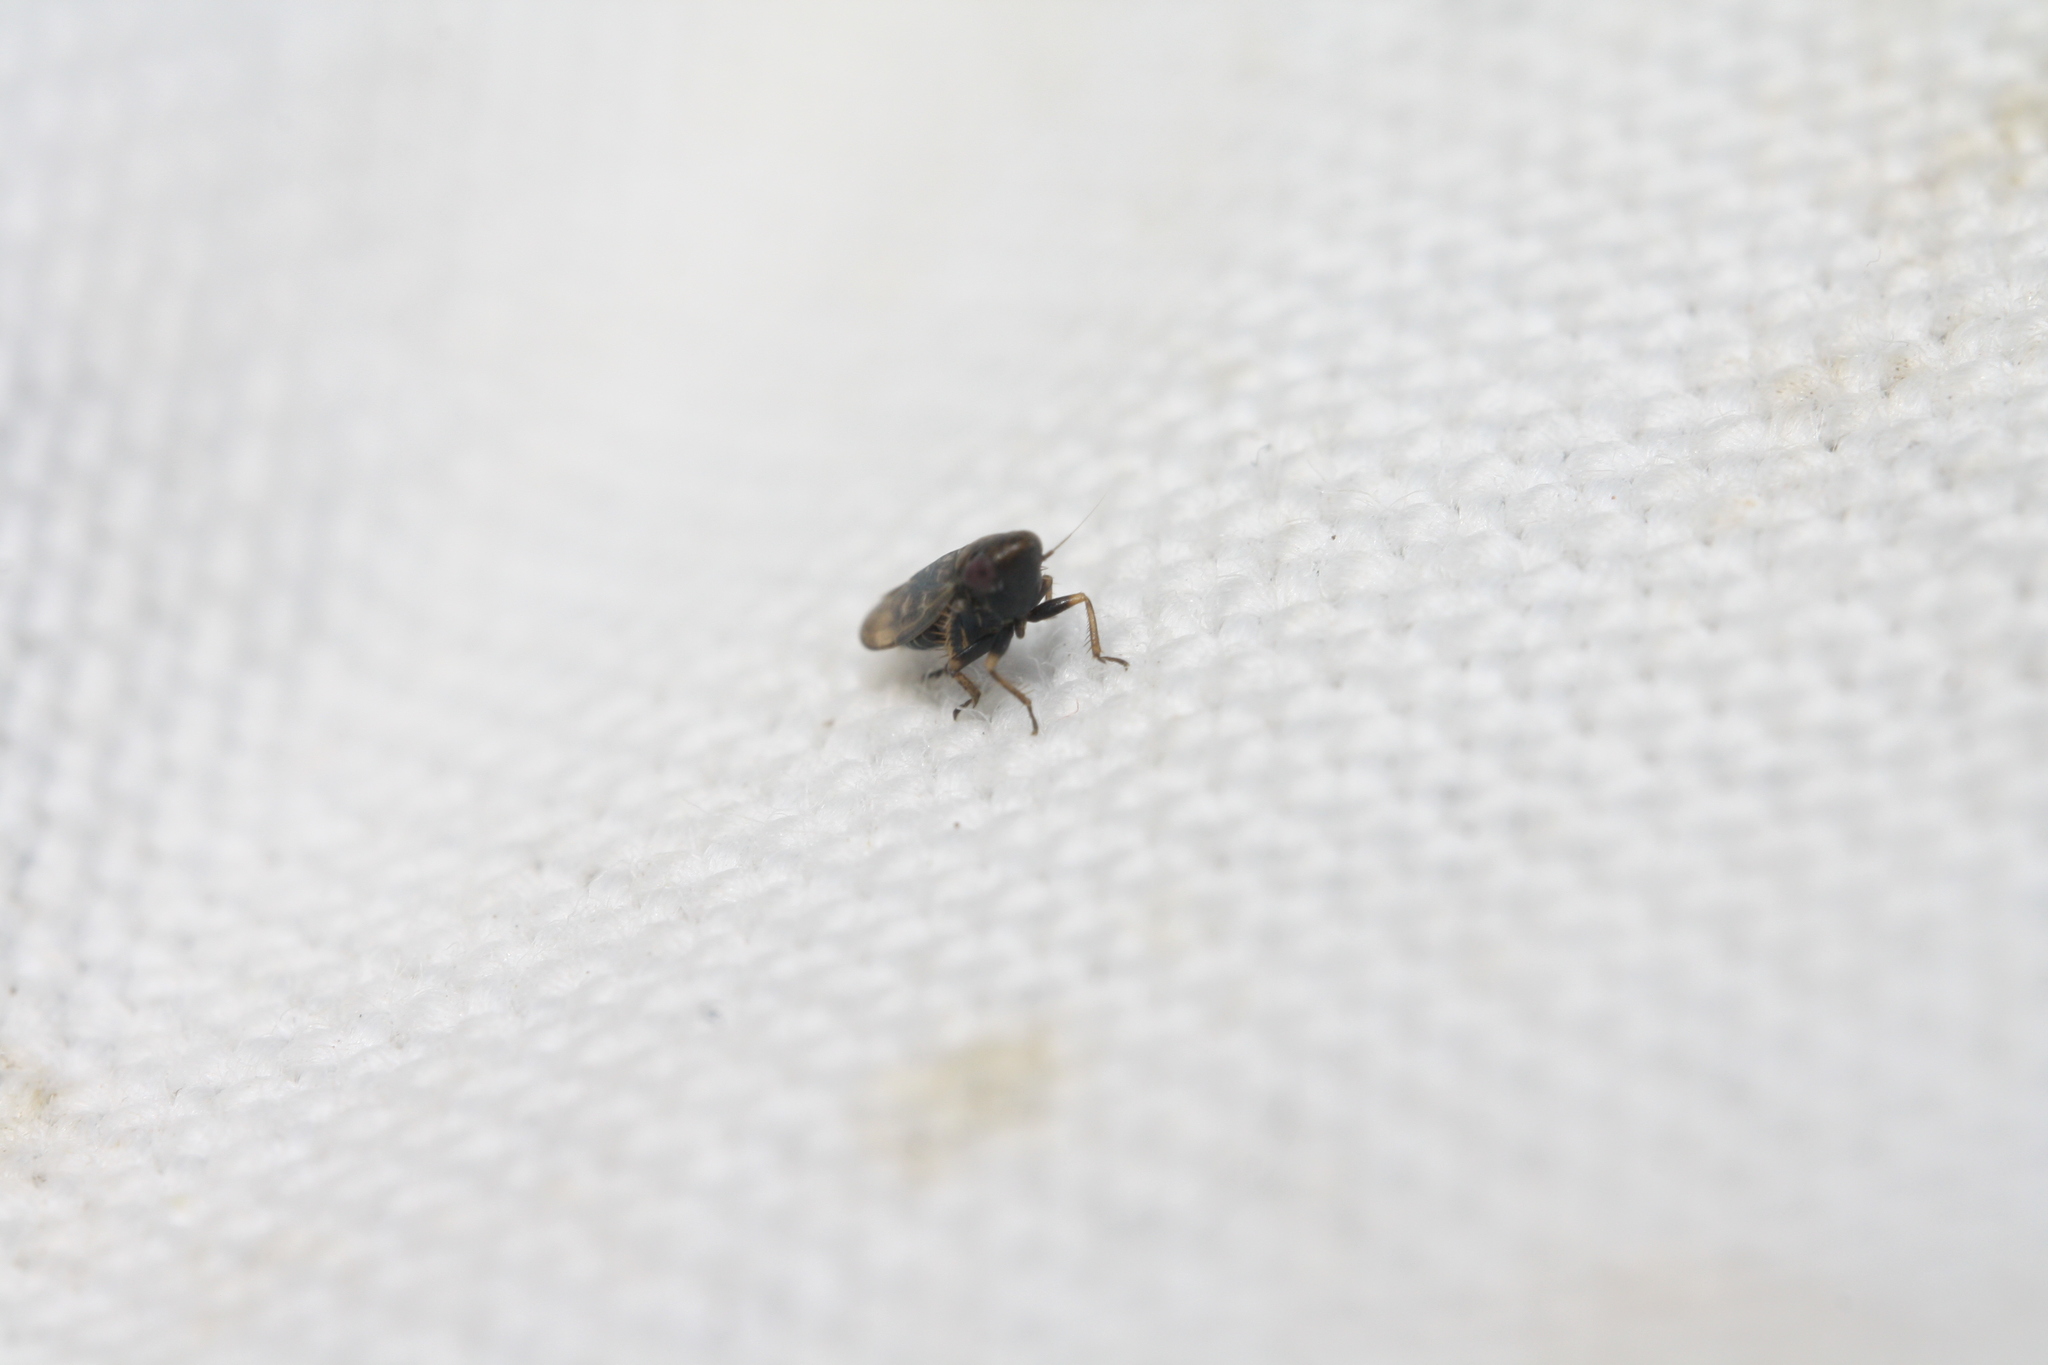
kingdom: Animalia
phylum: Arthropoda
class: Insecta
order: Hemiptera
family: Cicadellidae
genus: Deltocephalus
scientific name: Deltocephalus pulicaris
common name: Leafhopper
